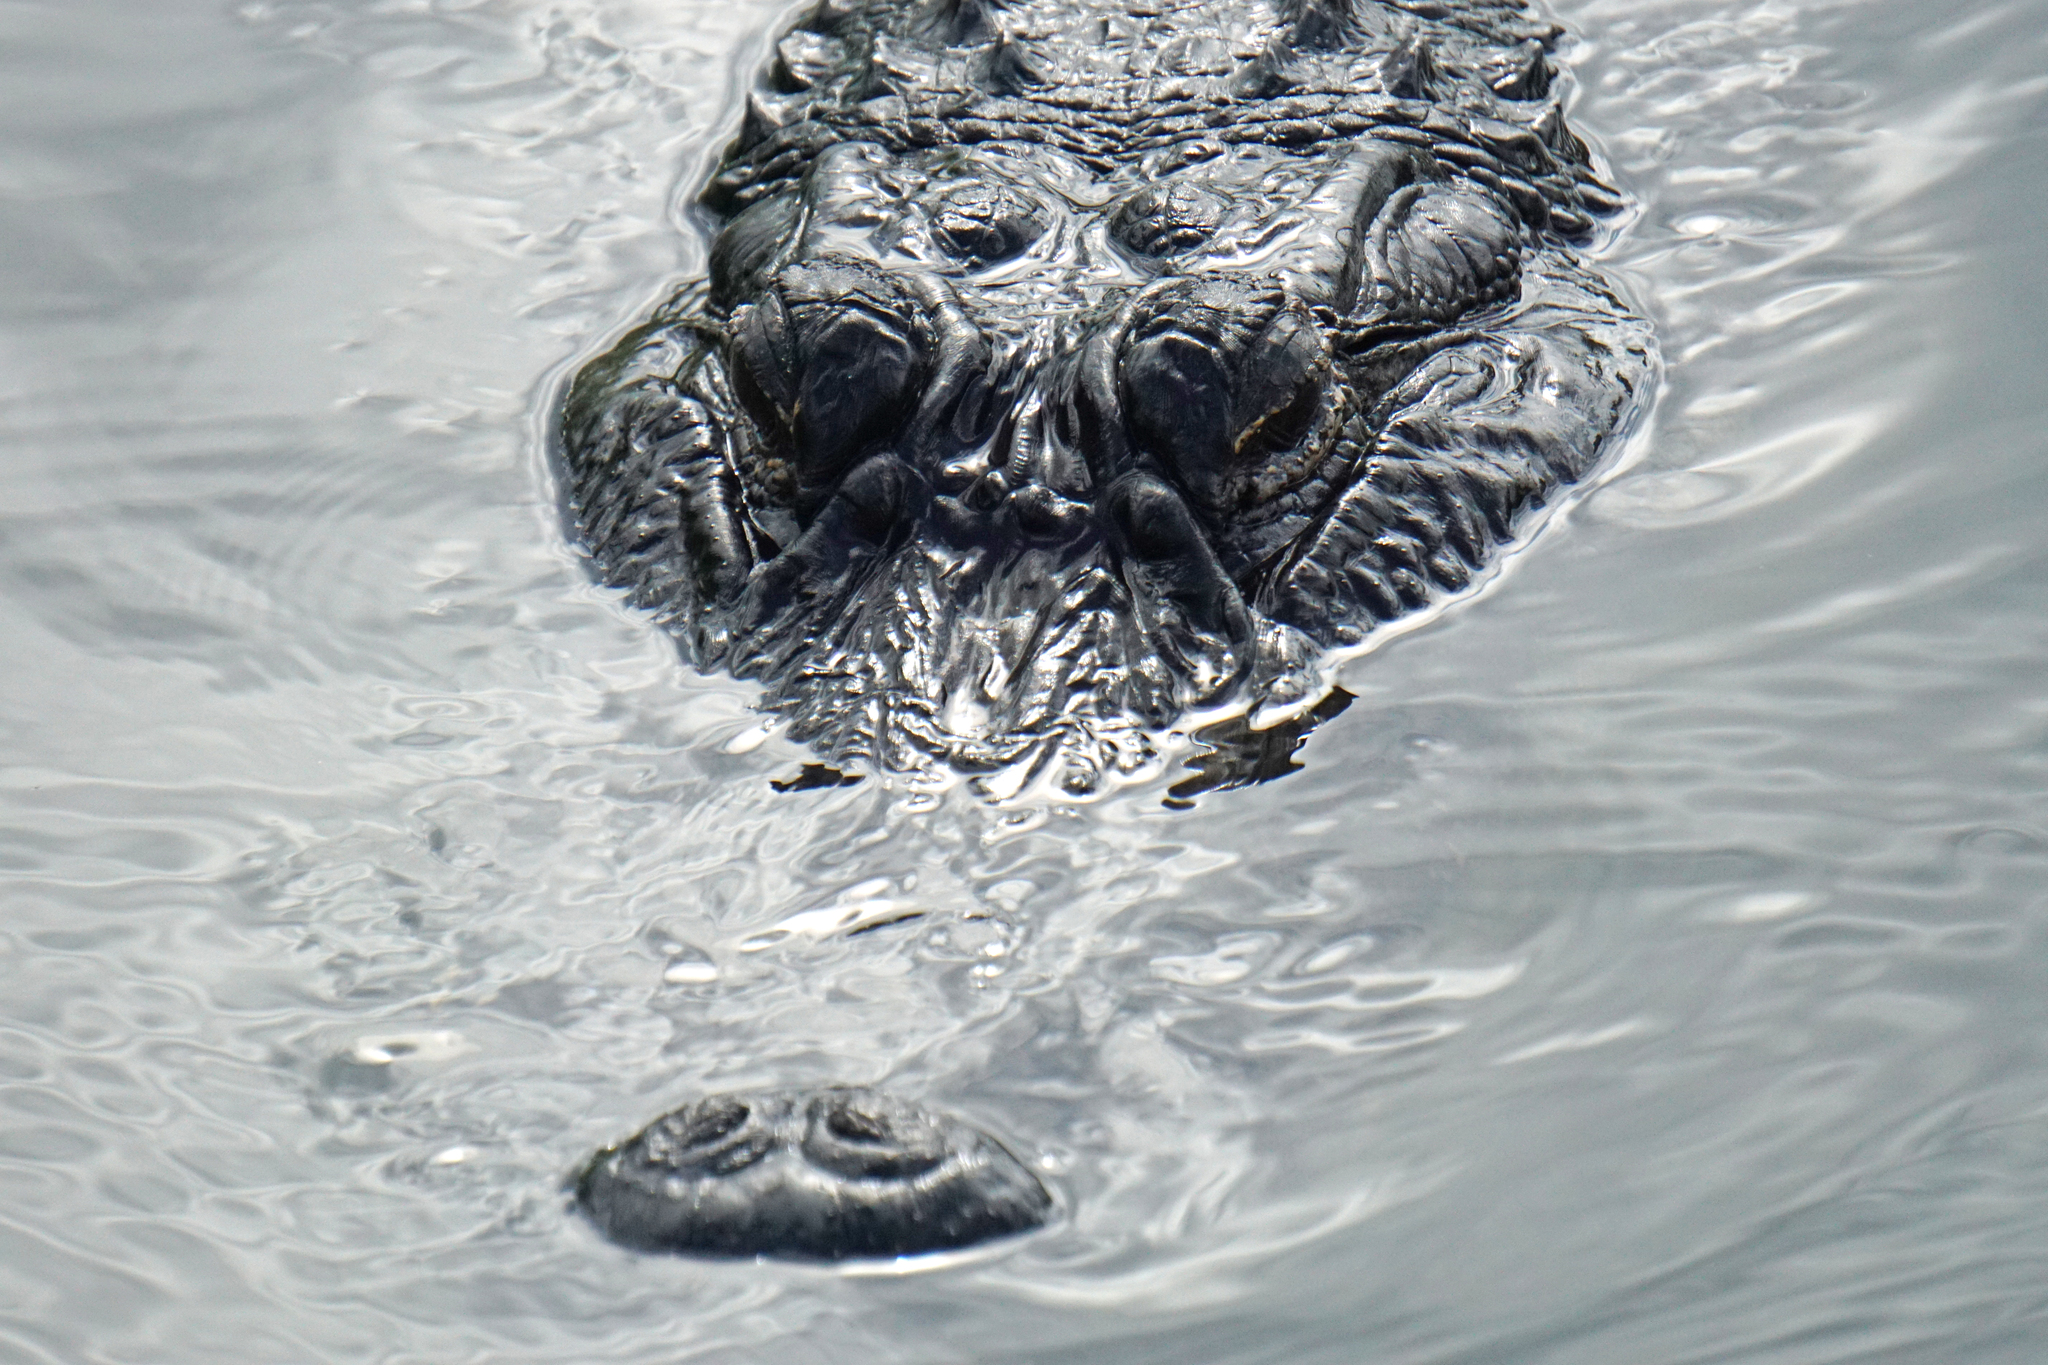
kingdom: Animalia
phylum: Chordata
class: Crocodylia
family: Alligatoridae
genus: Alligator
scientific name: Alligator mississippiensis
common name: American alligator
